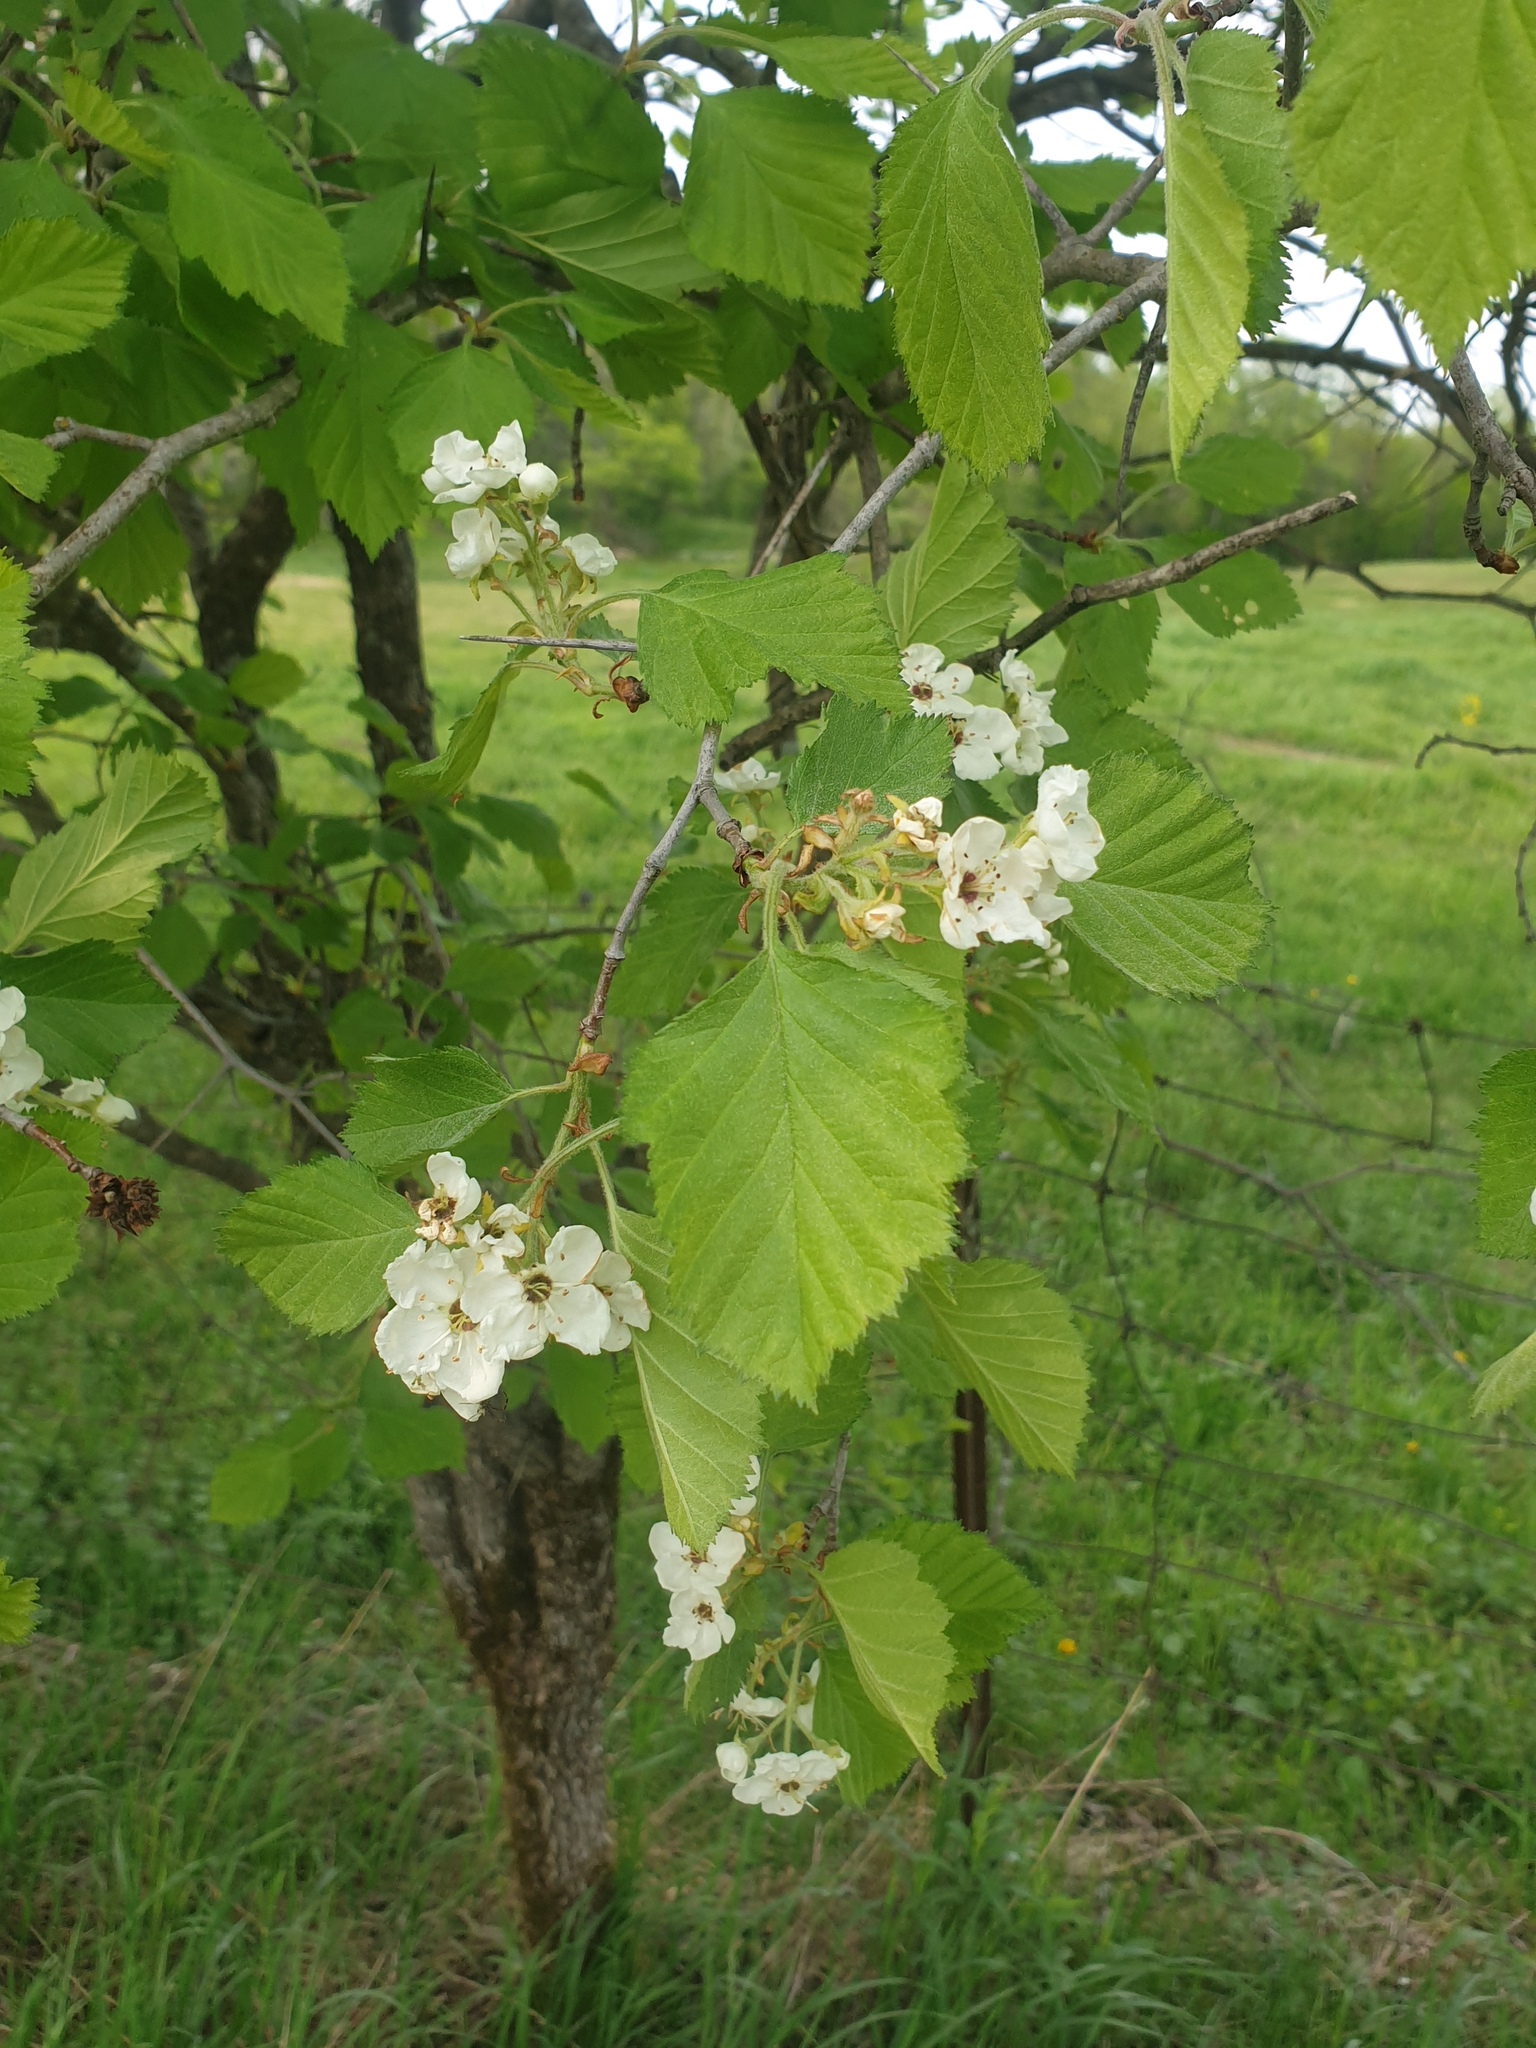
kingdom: Plantae
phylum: Tracheophyta
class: Magnoliopsida
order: Rosales
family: Rosaceae
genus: Crataegus
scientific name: Crataegus submollis
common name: Hairy cockspurthorn
